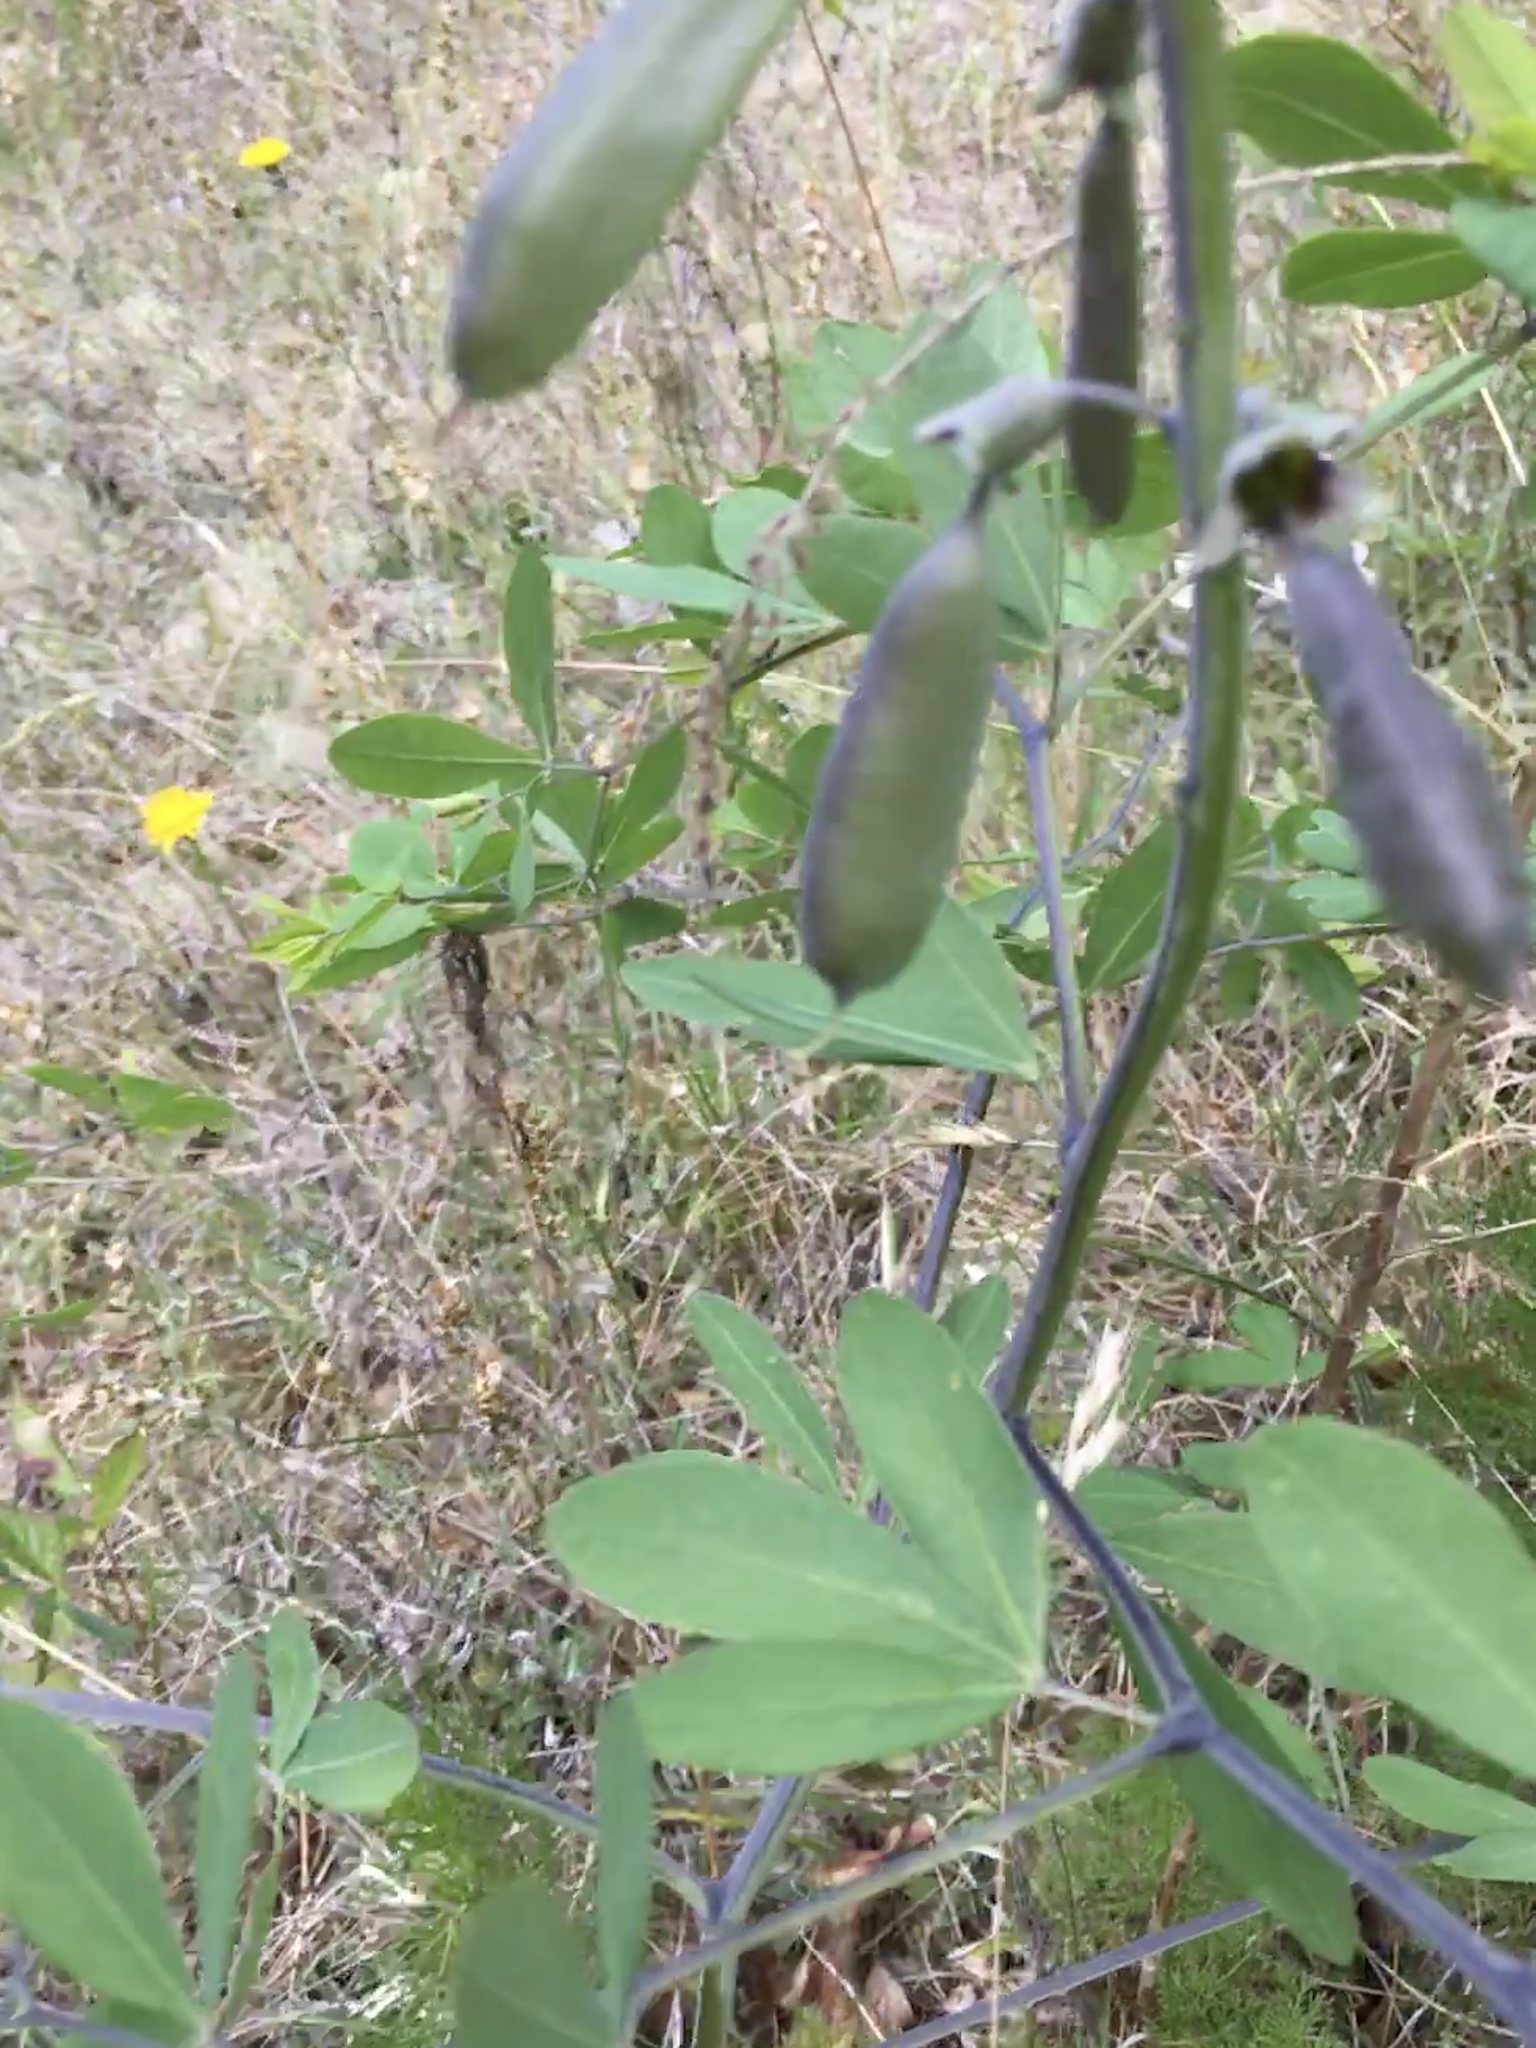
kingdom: Plantae
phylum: Tracheophyta
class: Magnoliopsida
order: Fabales
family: Fabaceae
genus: Baptisia
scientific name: Baptisia alba
